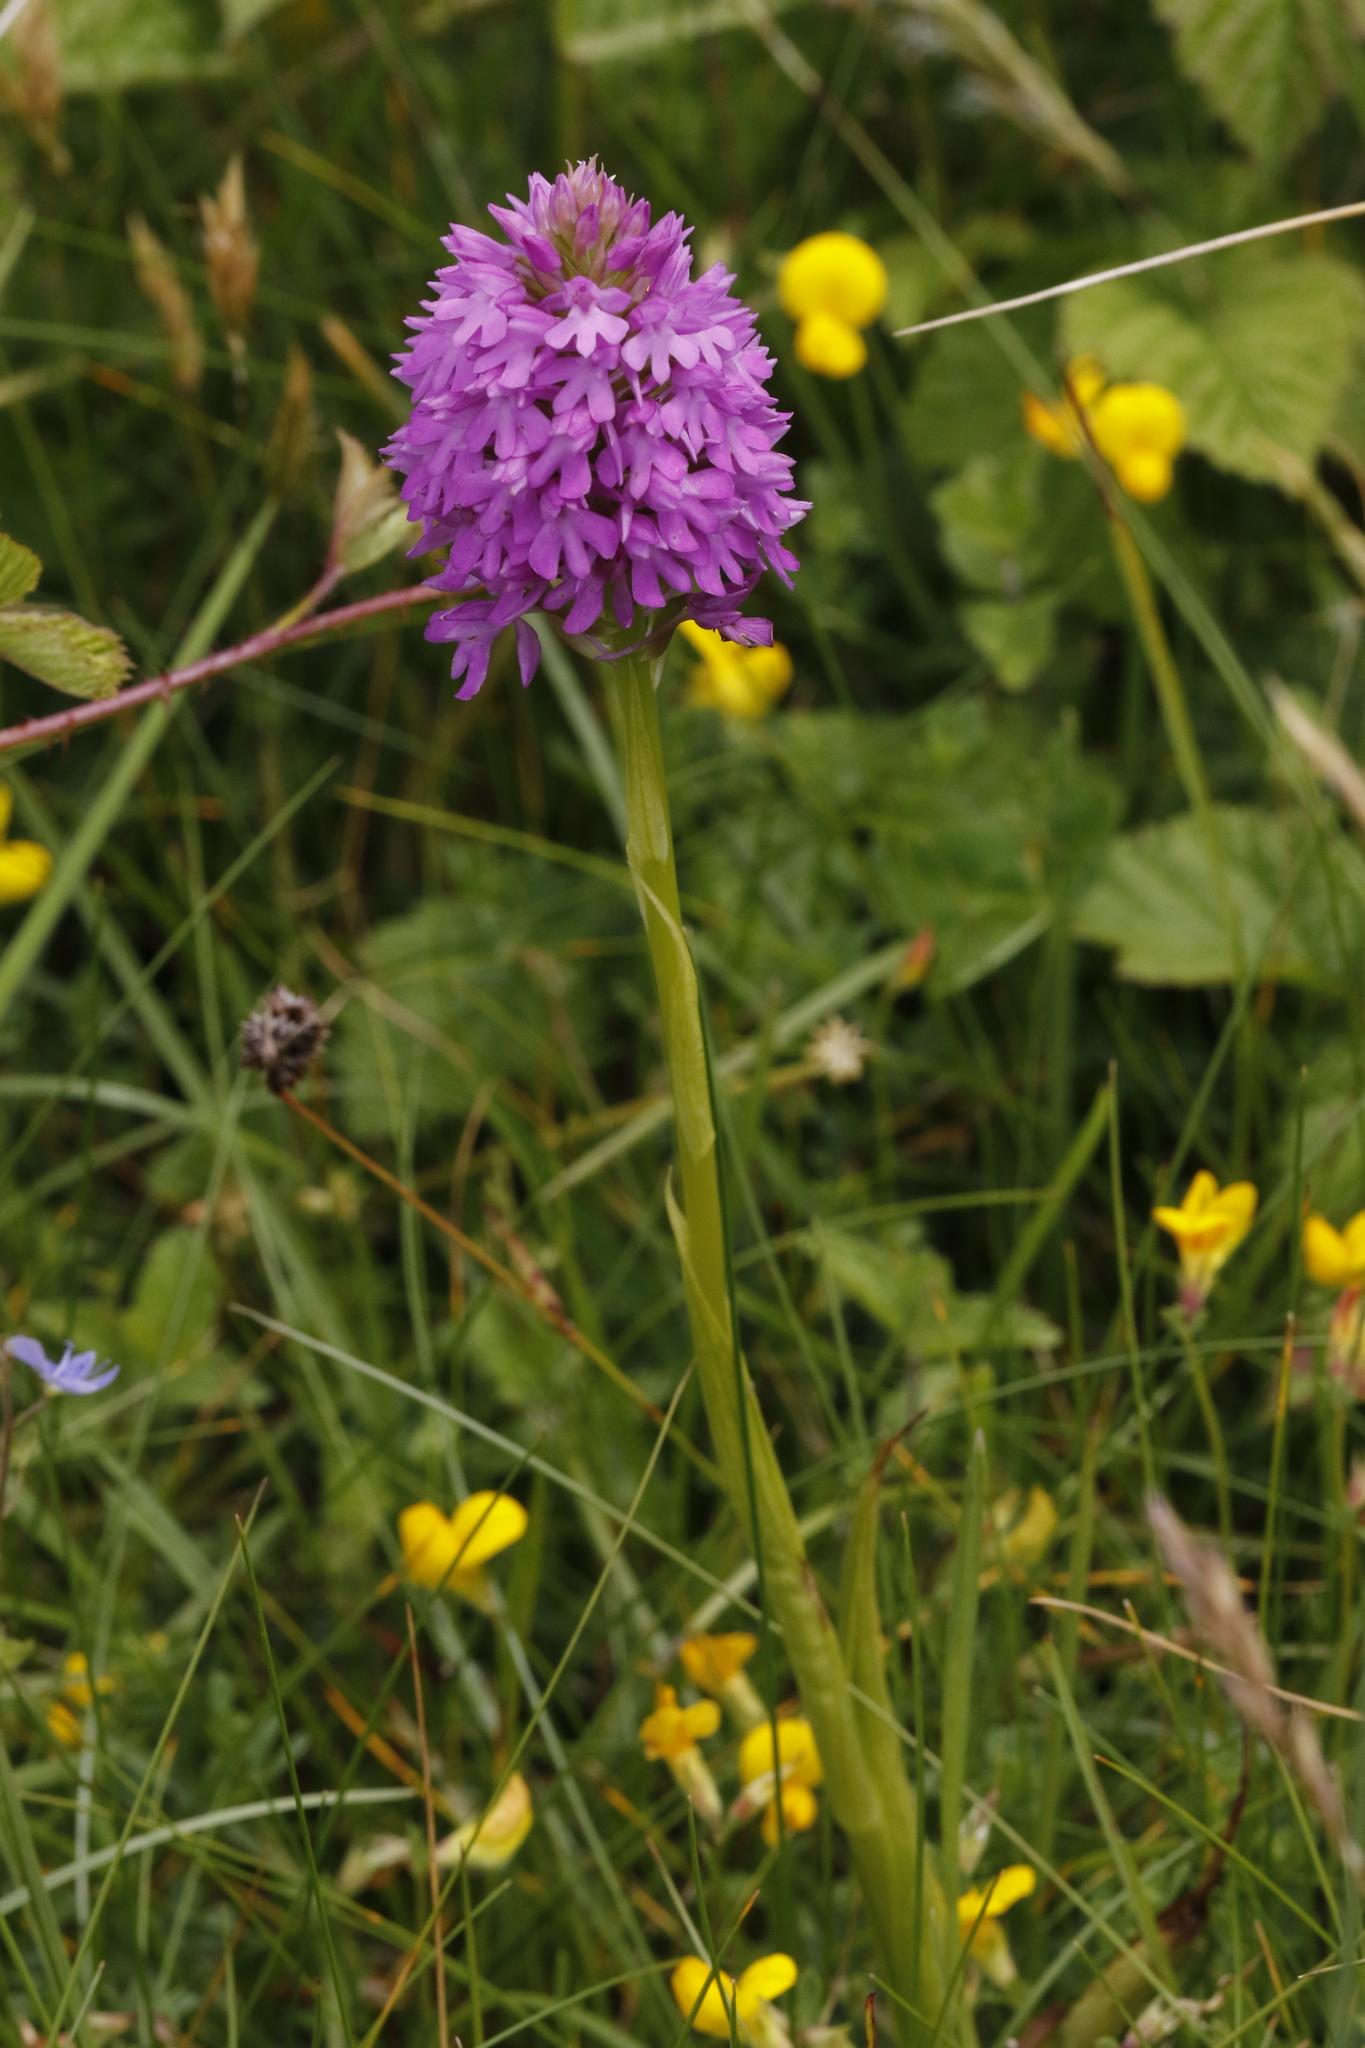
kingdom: Plantae
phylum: Tracheophyta
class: Liliopsida
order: Asparagales
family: Orchidaceae
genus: Anacamptis
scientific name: Anacamptis pyramidalis
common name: Pyramidal orchid
